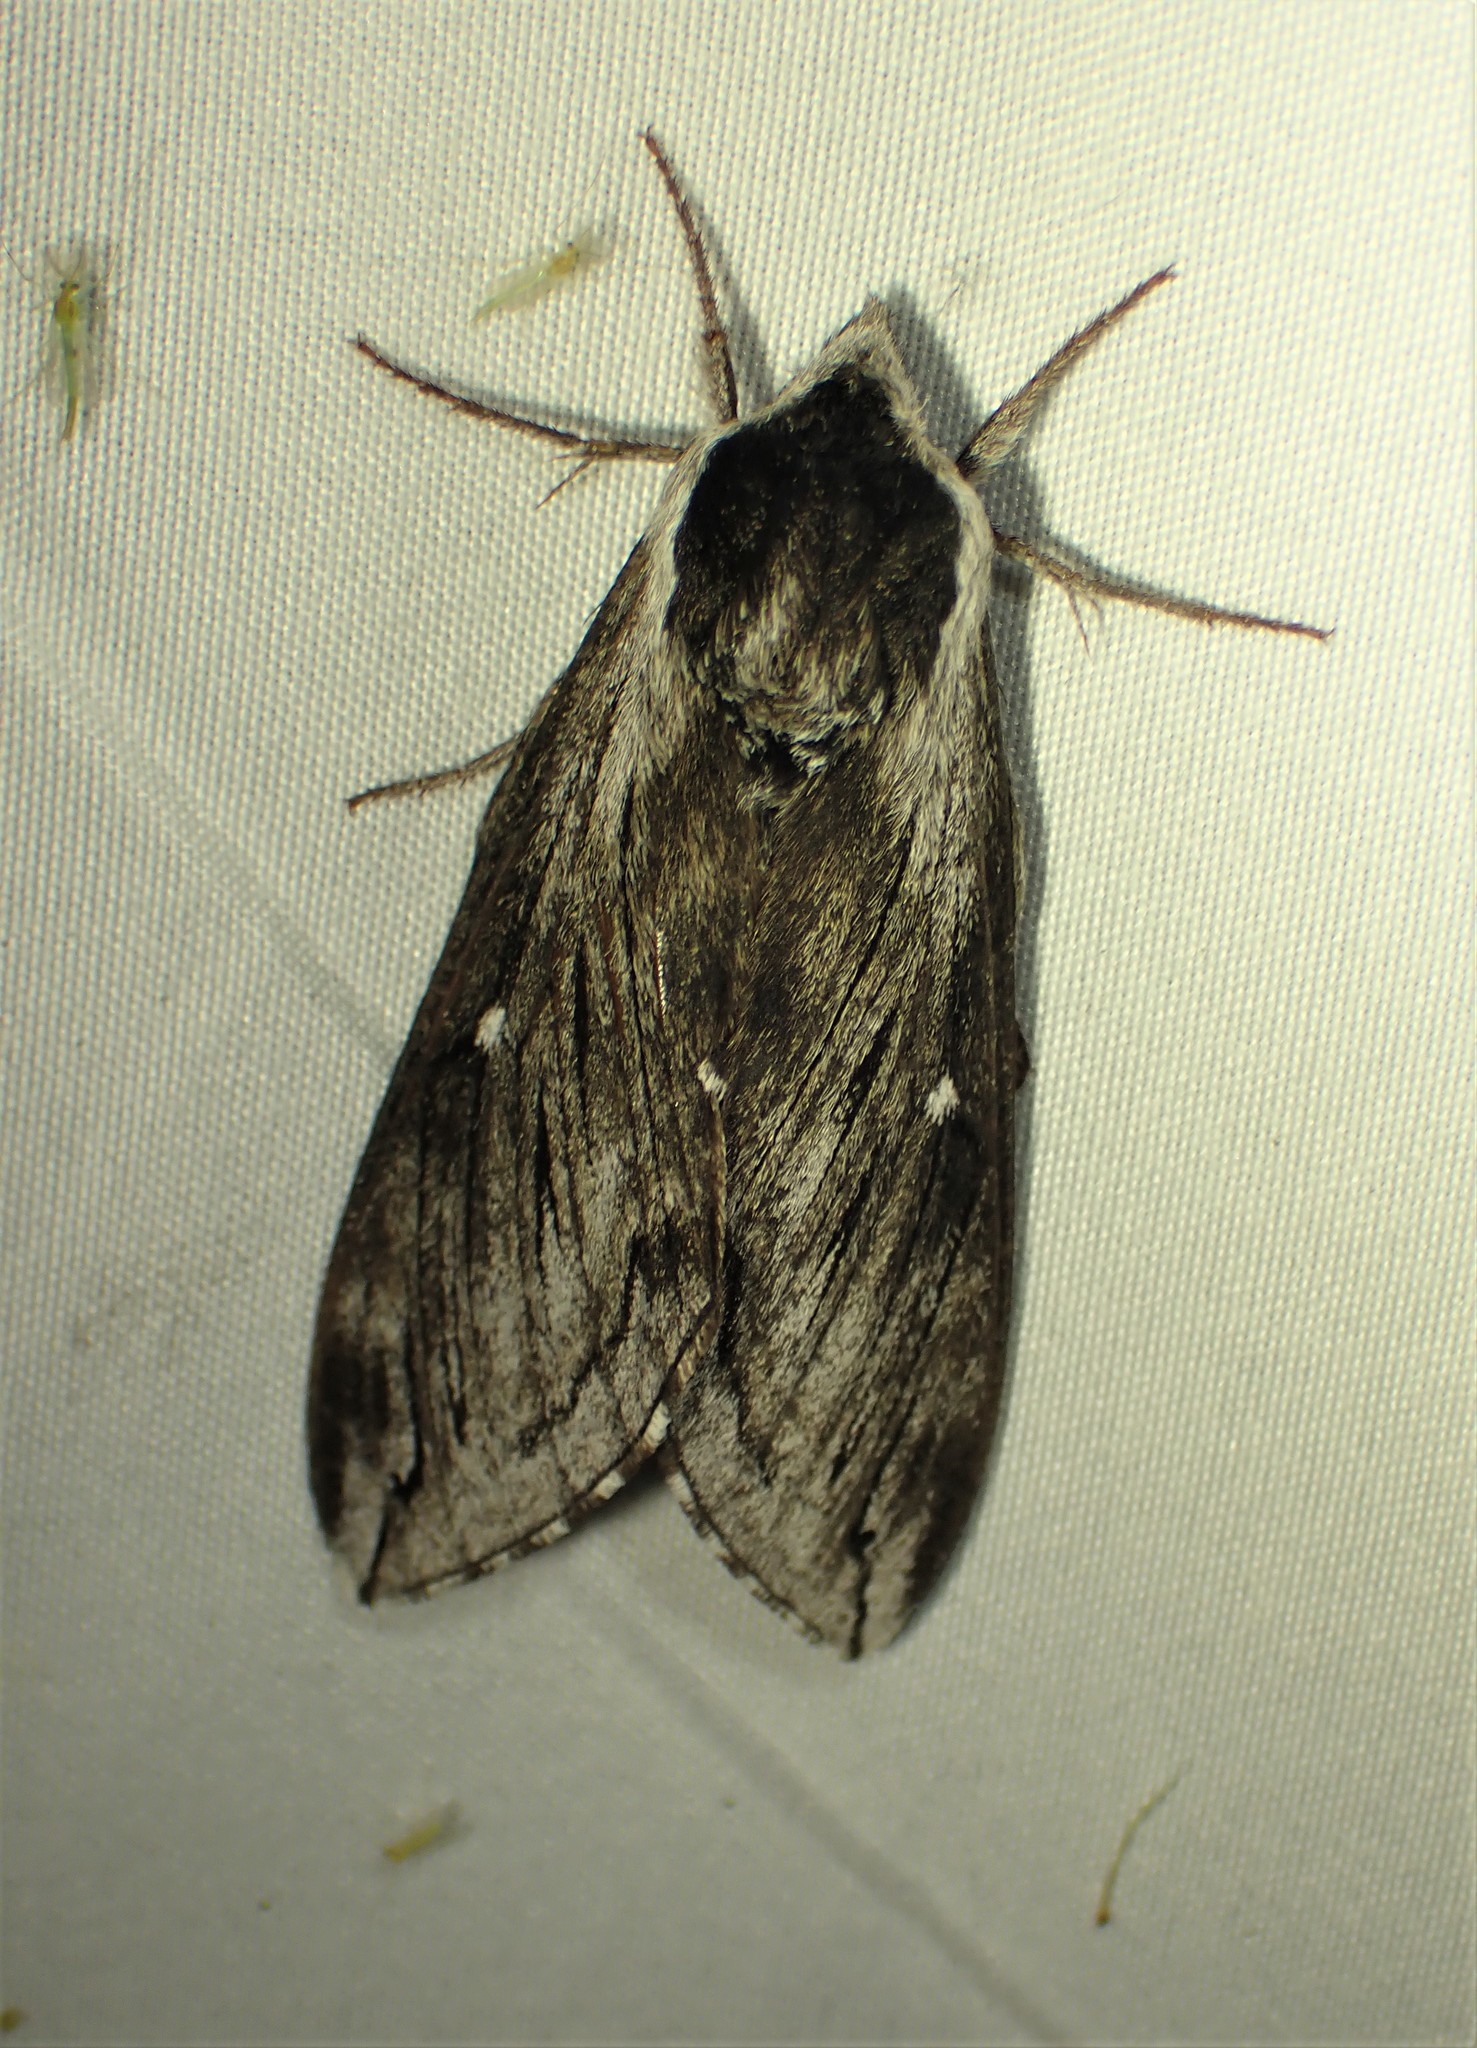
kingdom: Animalia
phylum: Arthropoda
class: Insecta
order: Lepidoptera
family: Sphingidae
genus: Sphinx
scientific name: Sphinx poecila
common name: Northern apple sphinx
